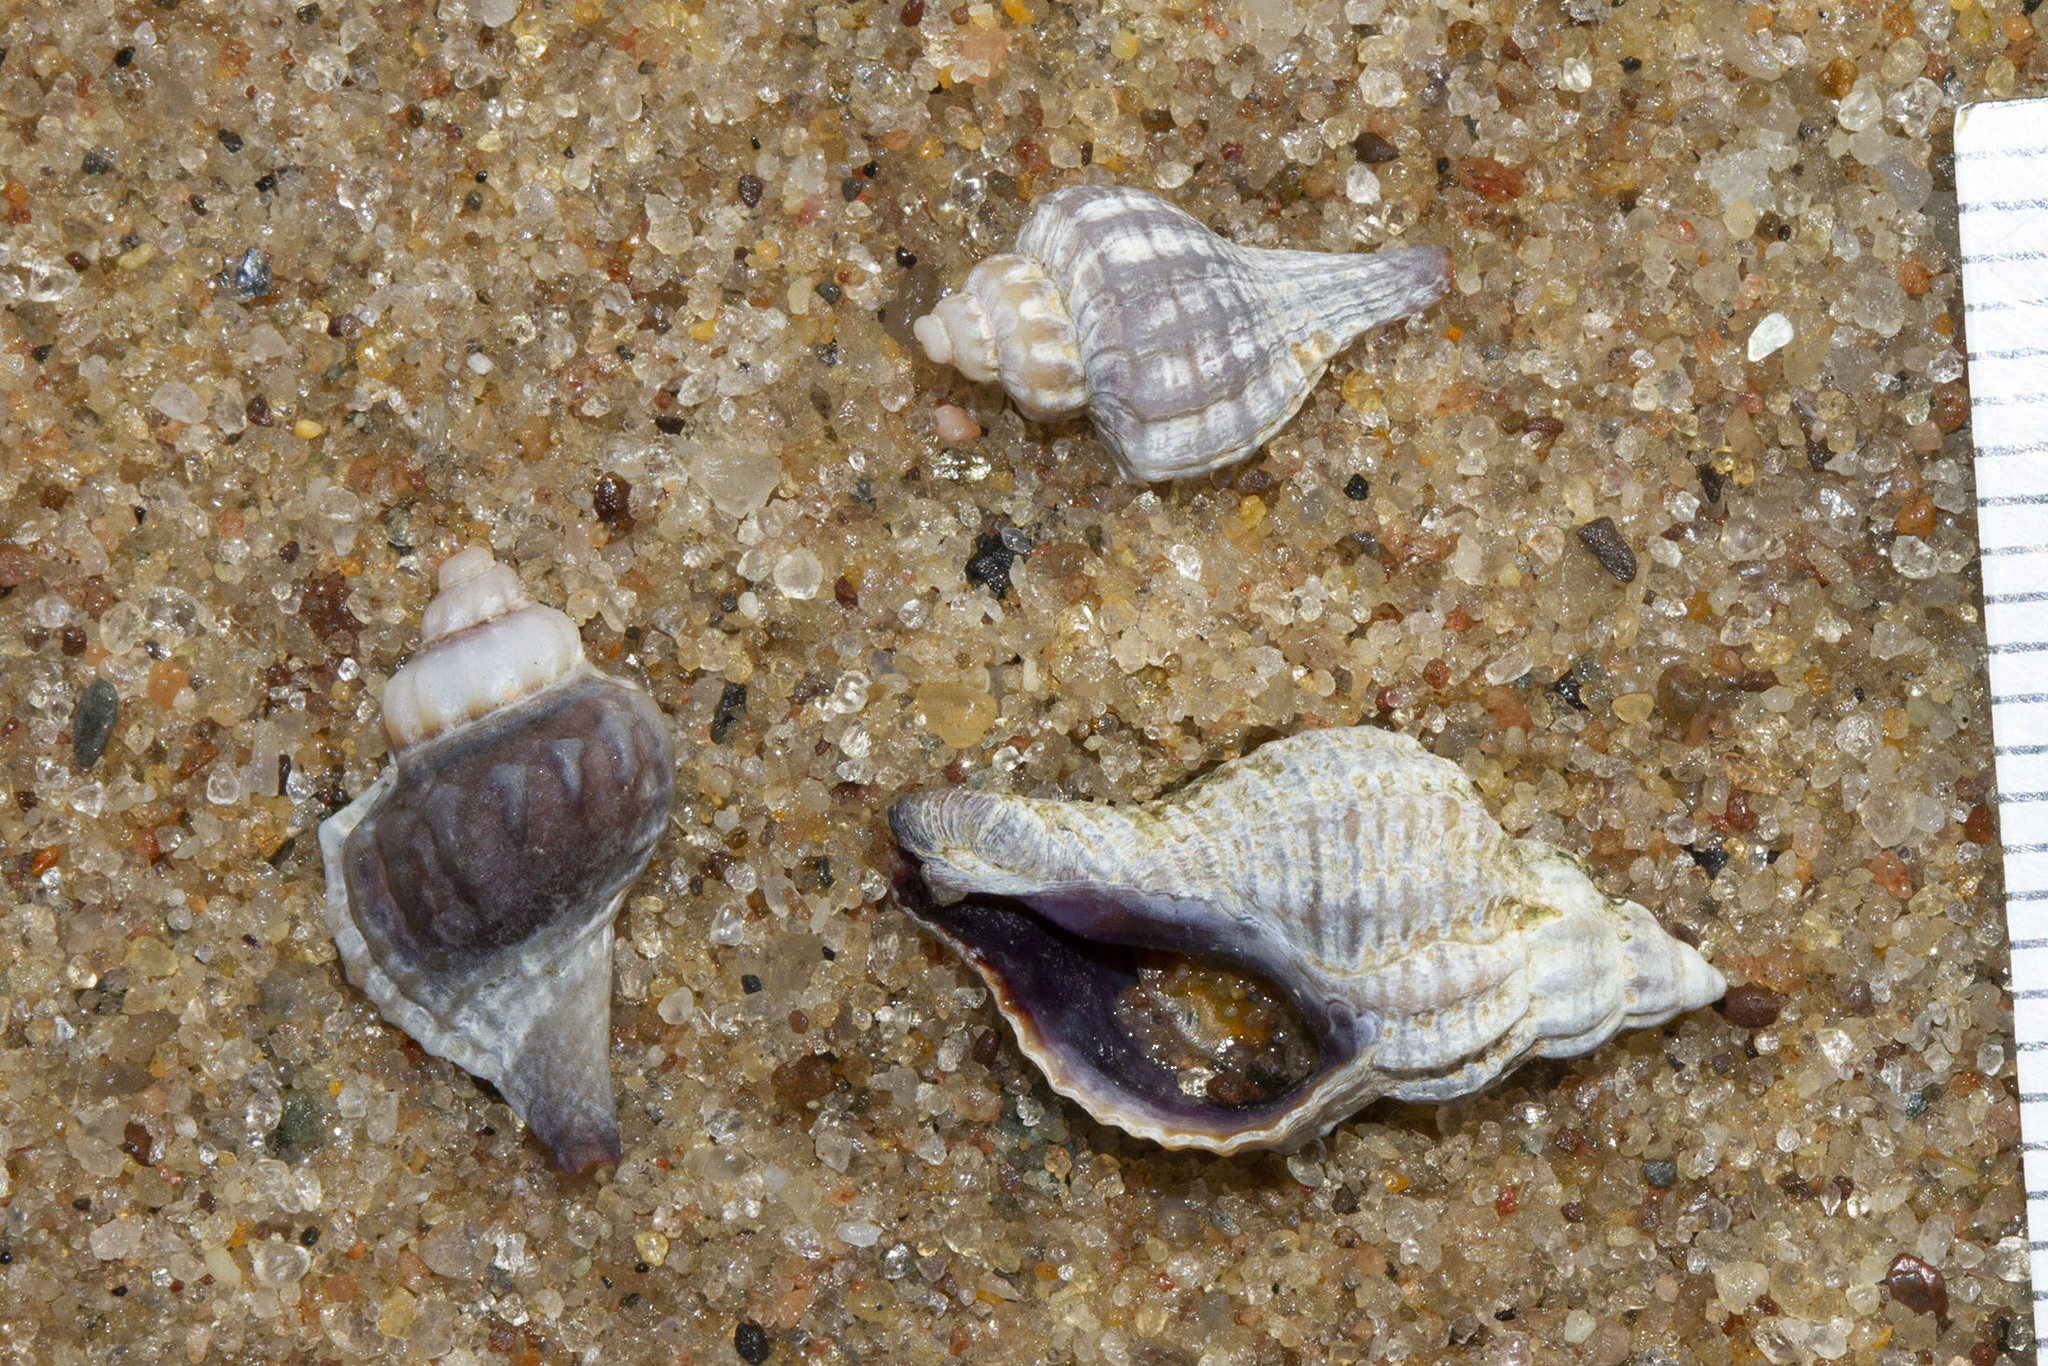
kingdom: Animalia
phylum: Mollusca
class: Gastropoda
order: Neogastropoda
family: Muricidae
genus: Urosalpinx
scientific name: Urosalpinx cinerea
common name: American sting winkle
